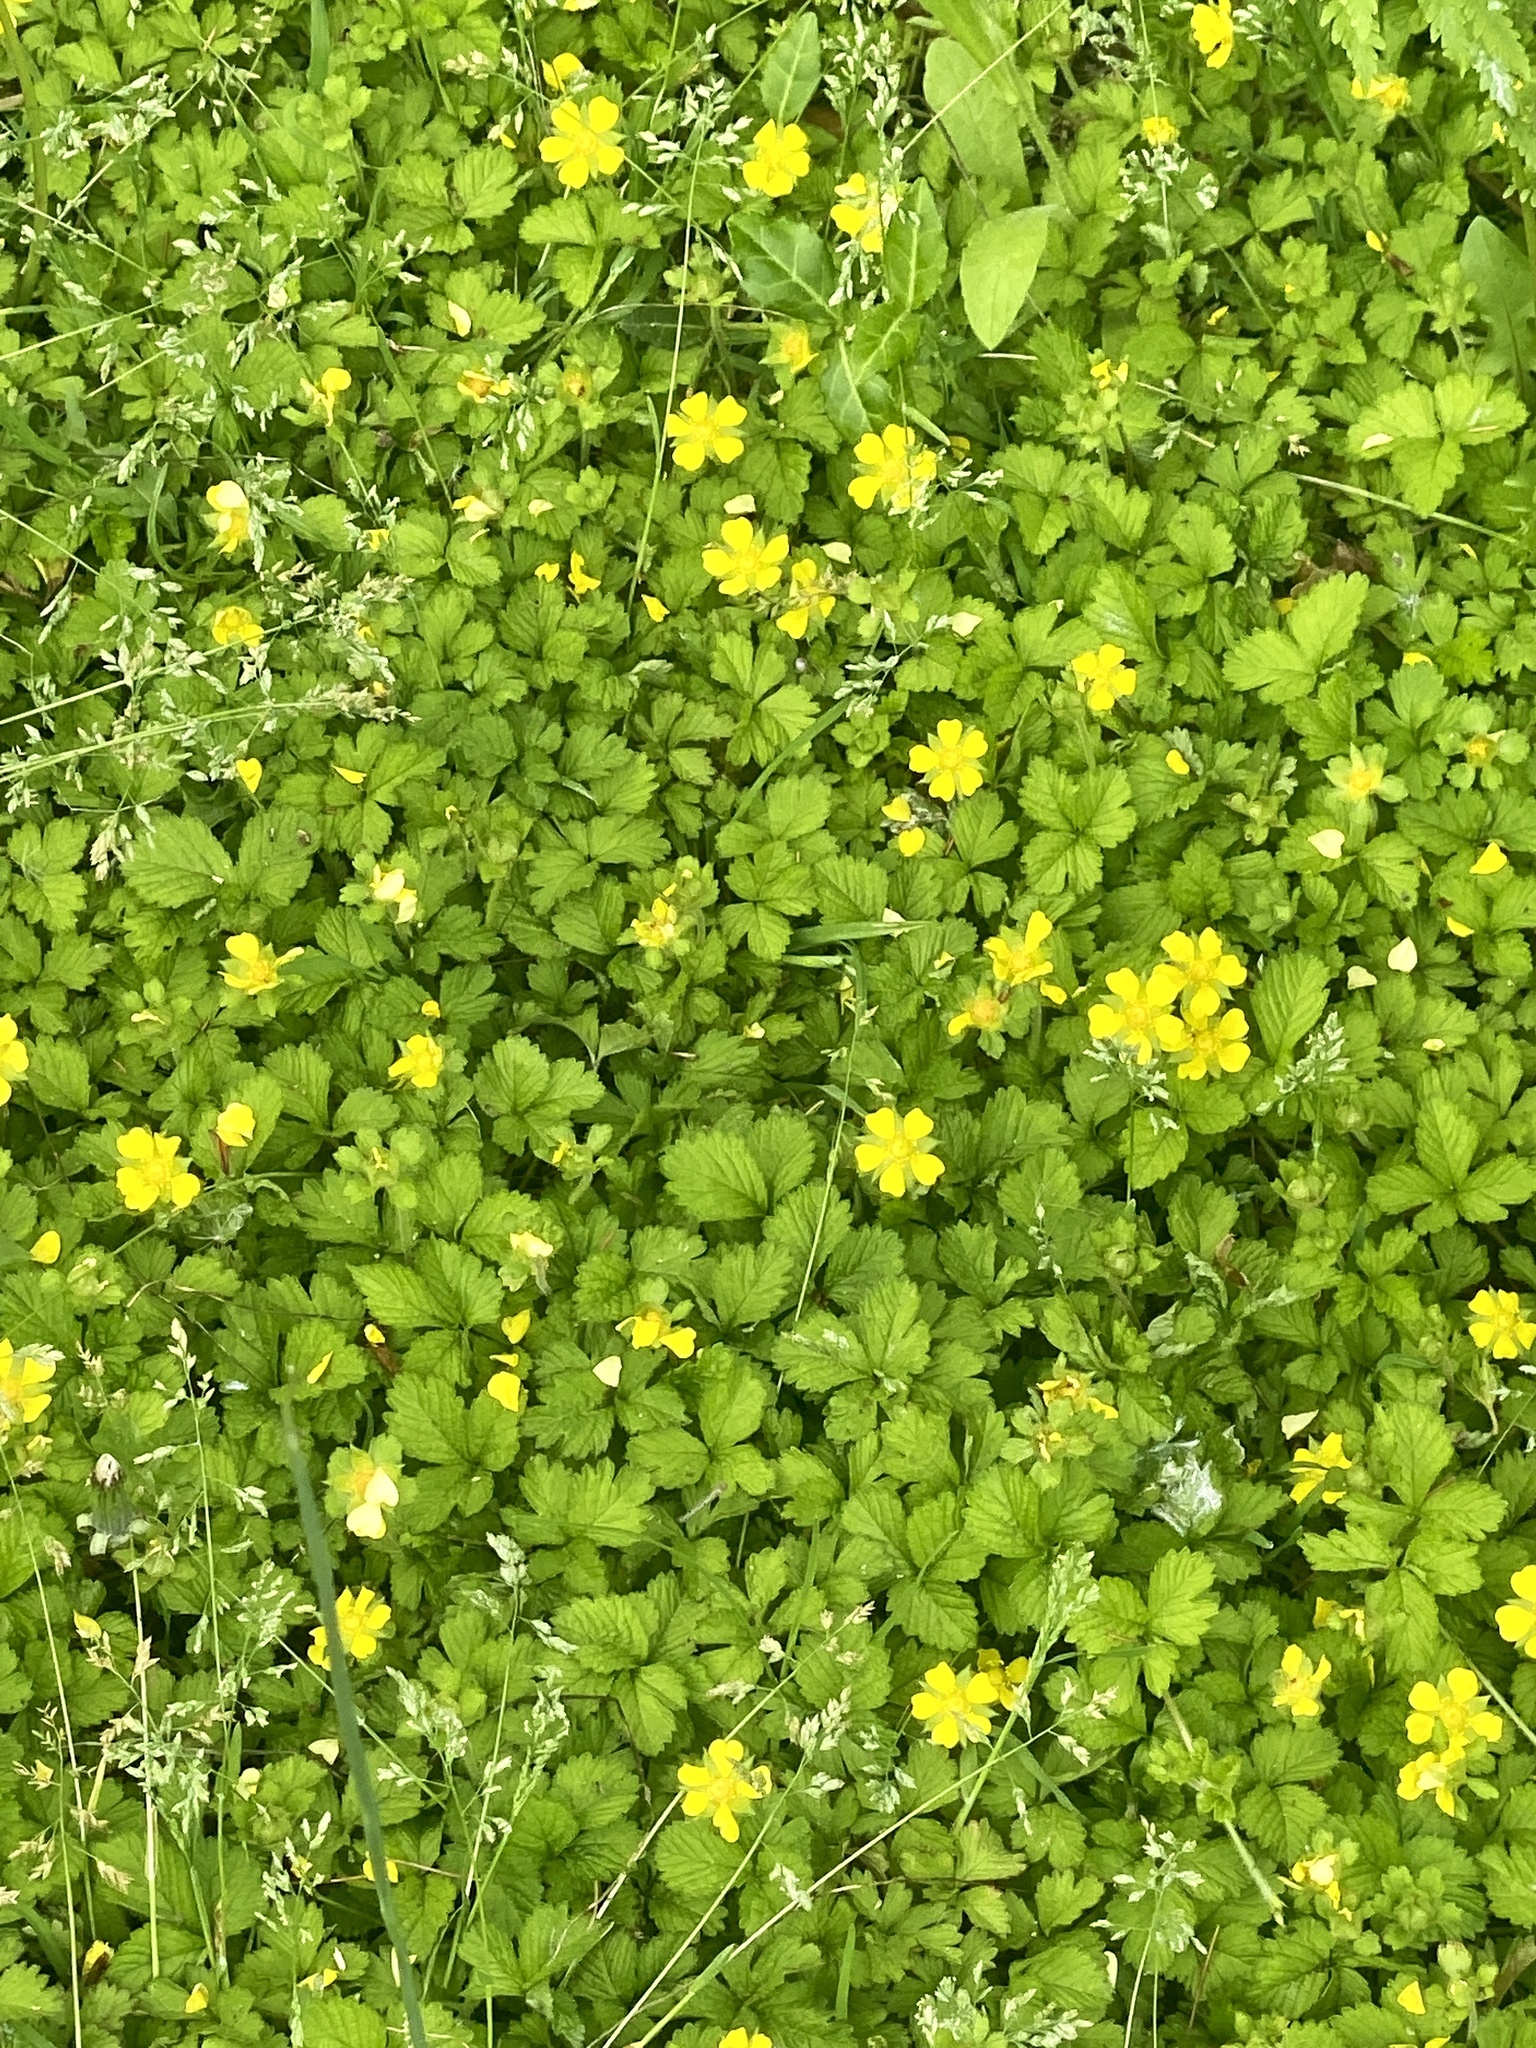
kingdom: Plantae
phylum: Tracheophyta
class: Magnoliopsida
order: Rosales
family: Rosaceae
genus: Potentilla
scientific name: Potentilla indica
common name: Yellow-flowered strawberry
